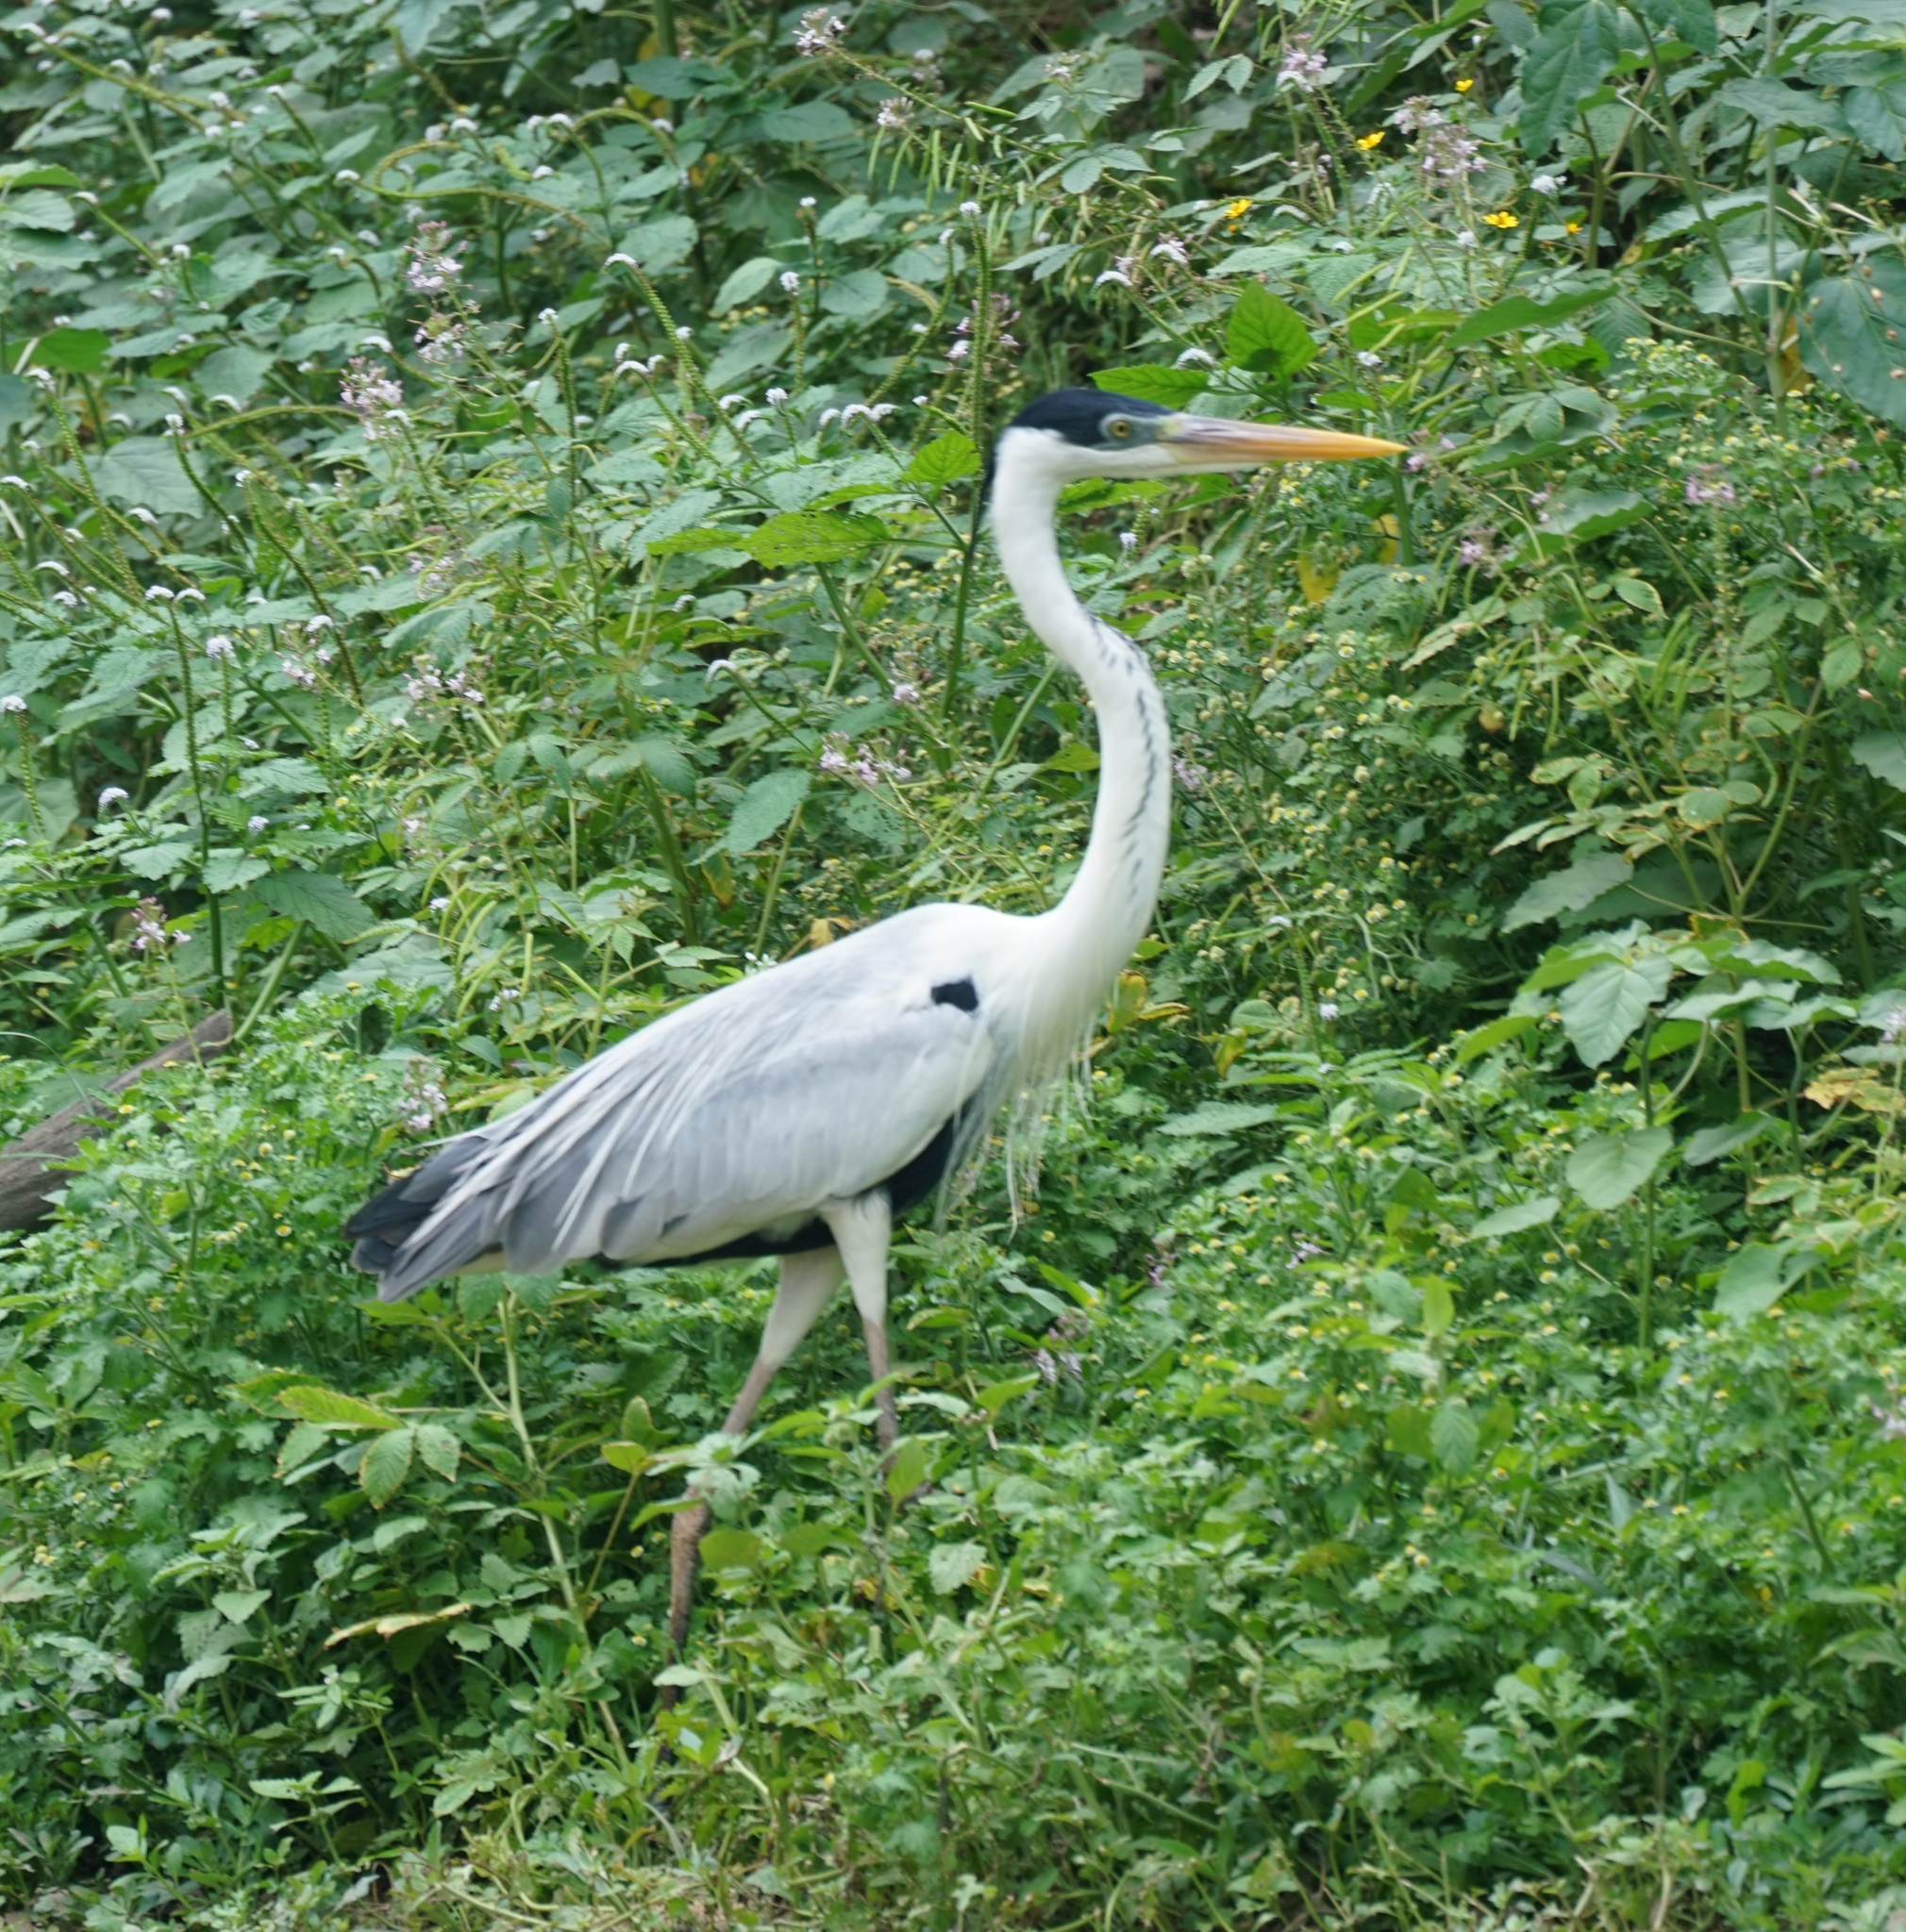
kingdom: Animalia
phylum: Chordata
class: Aves
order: Pelecaniformes
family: Ardeidae
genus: Ardea
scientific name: Ardea cocoi
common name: Cocoi heron
